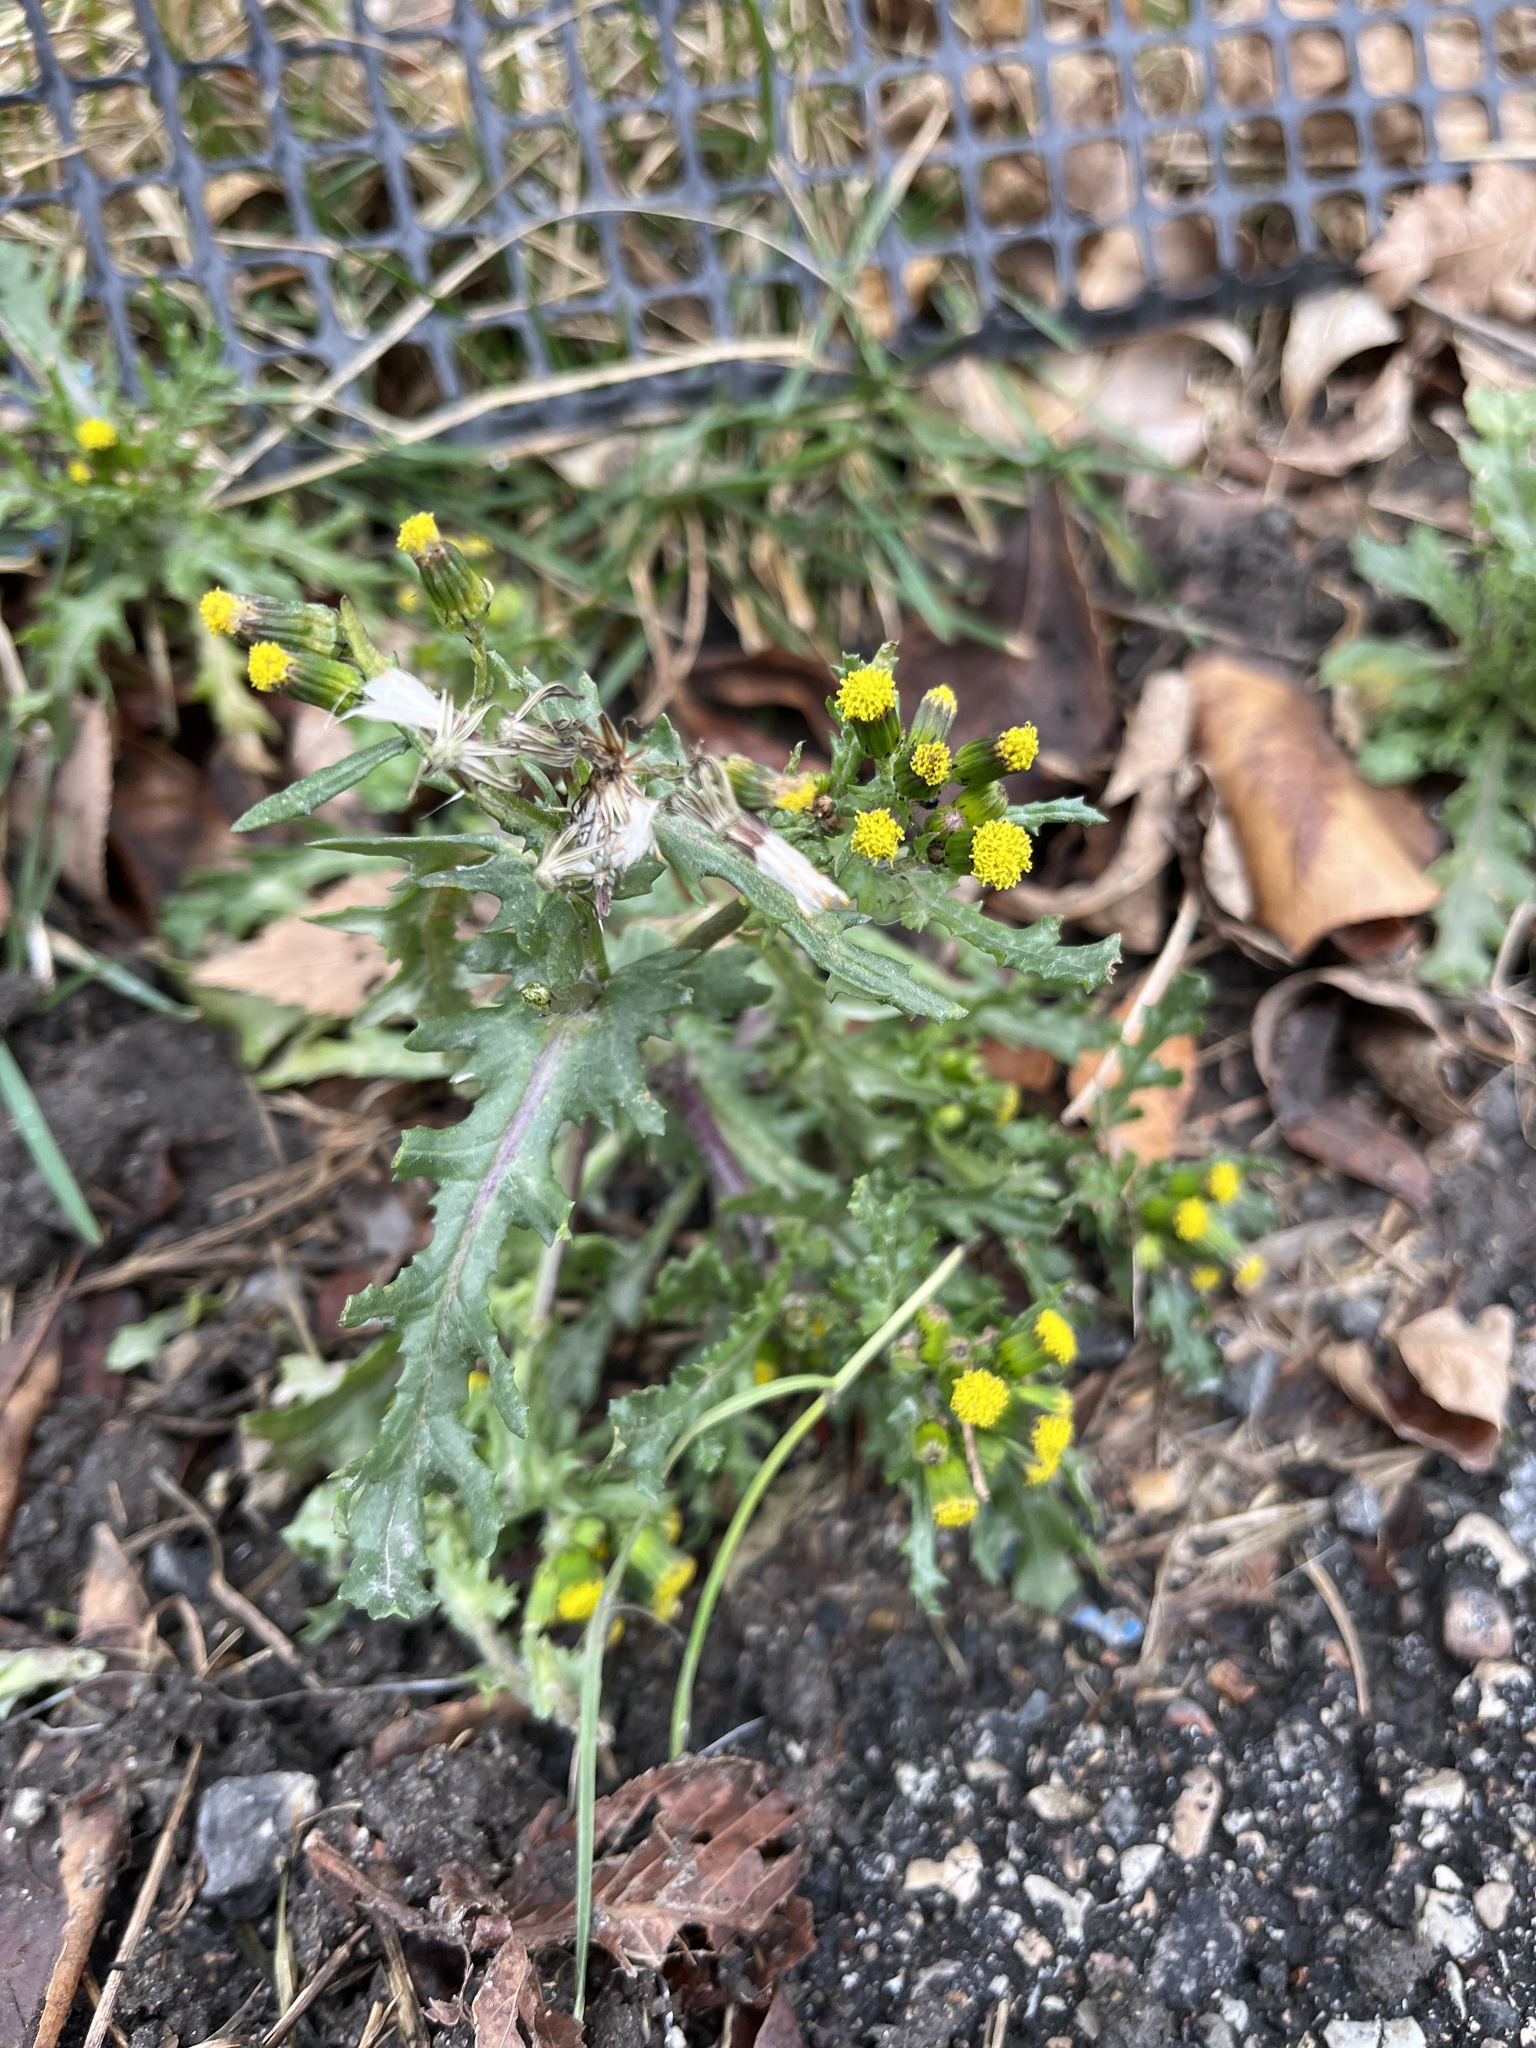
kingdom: Plantae
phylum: Tracheophyta
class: Magnoliopsida
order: Asterales
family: Asteraceae
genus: Senecio
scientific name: Senecio vulgaris
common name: Old-man-in-the-spring
